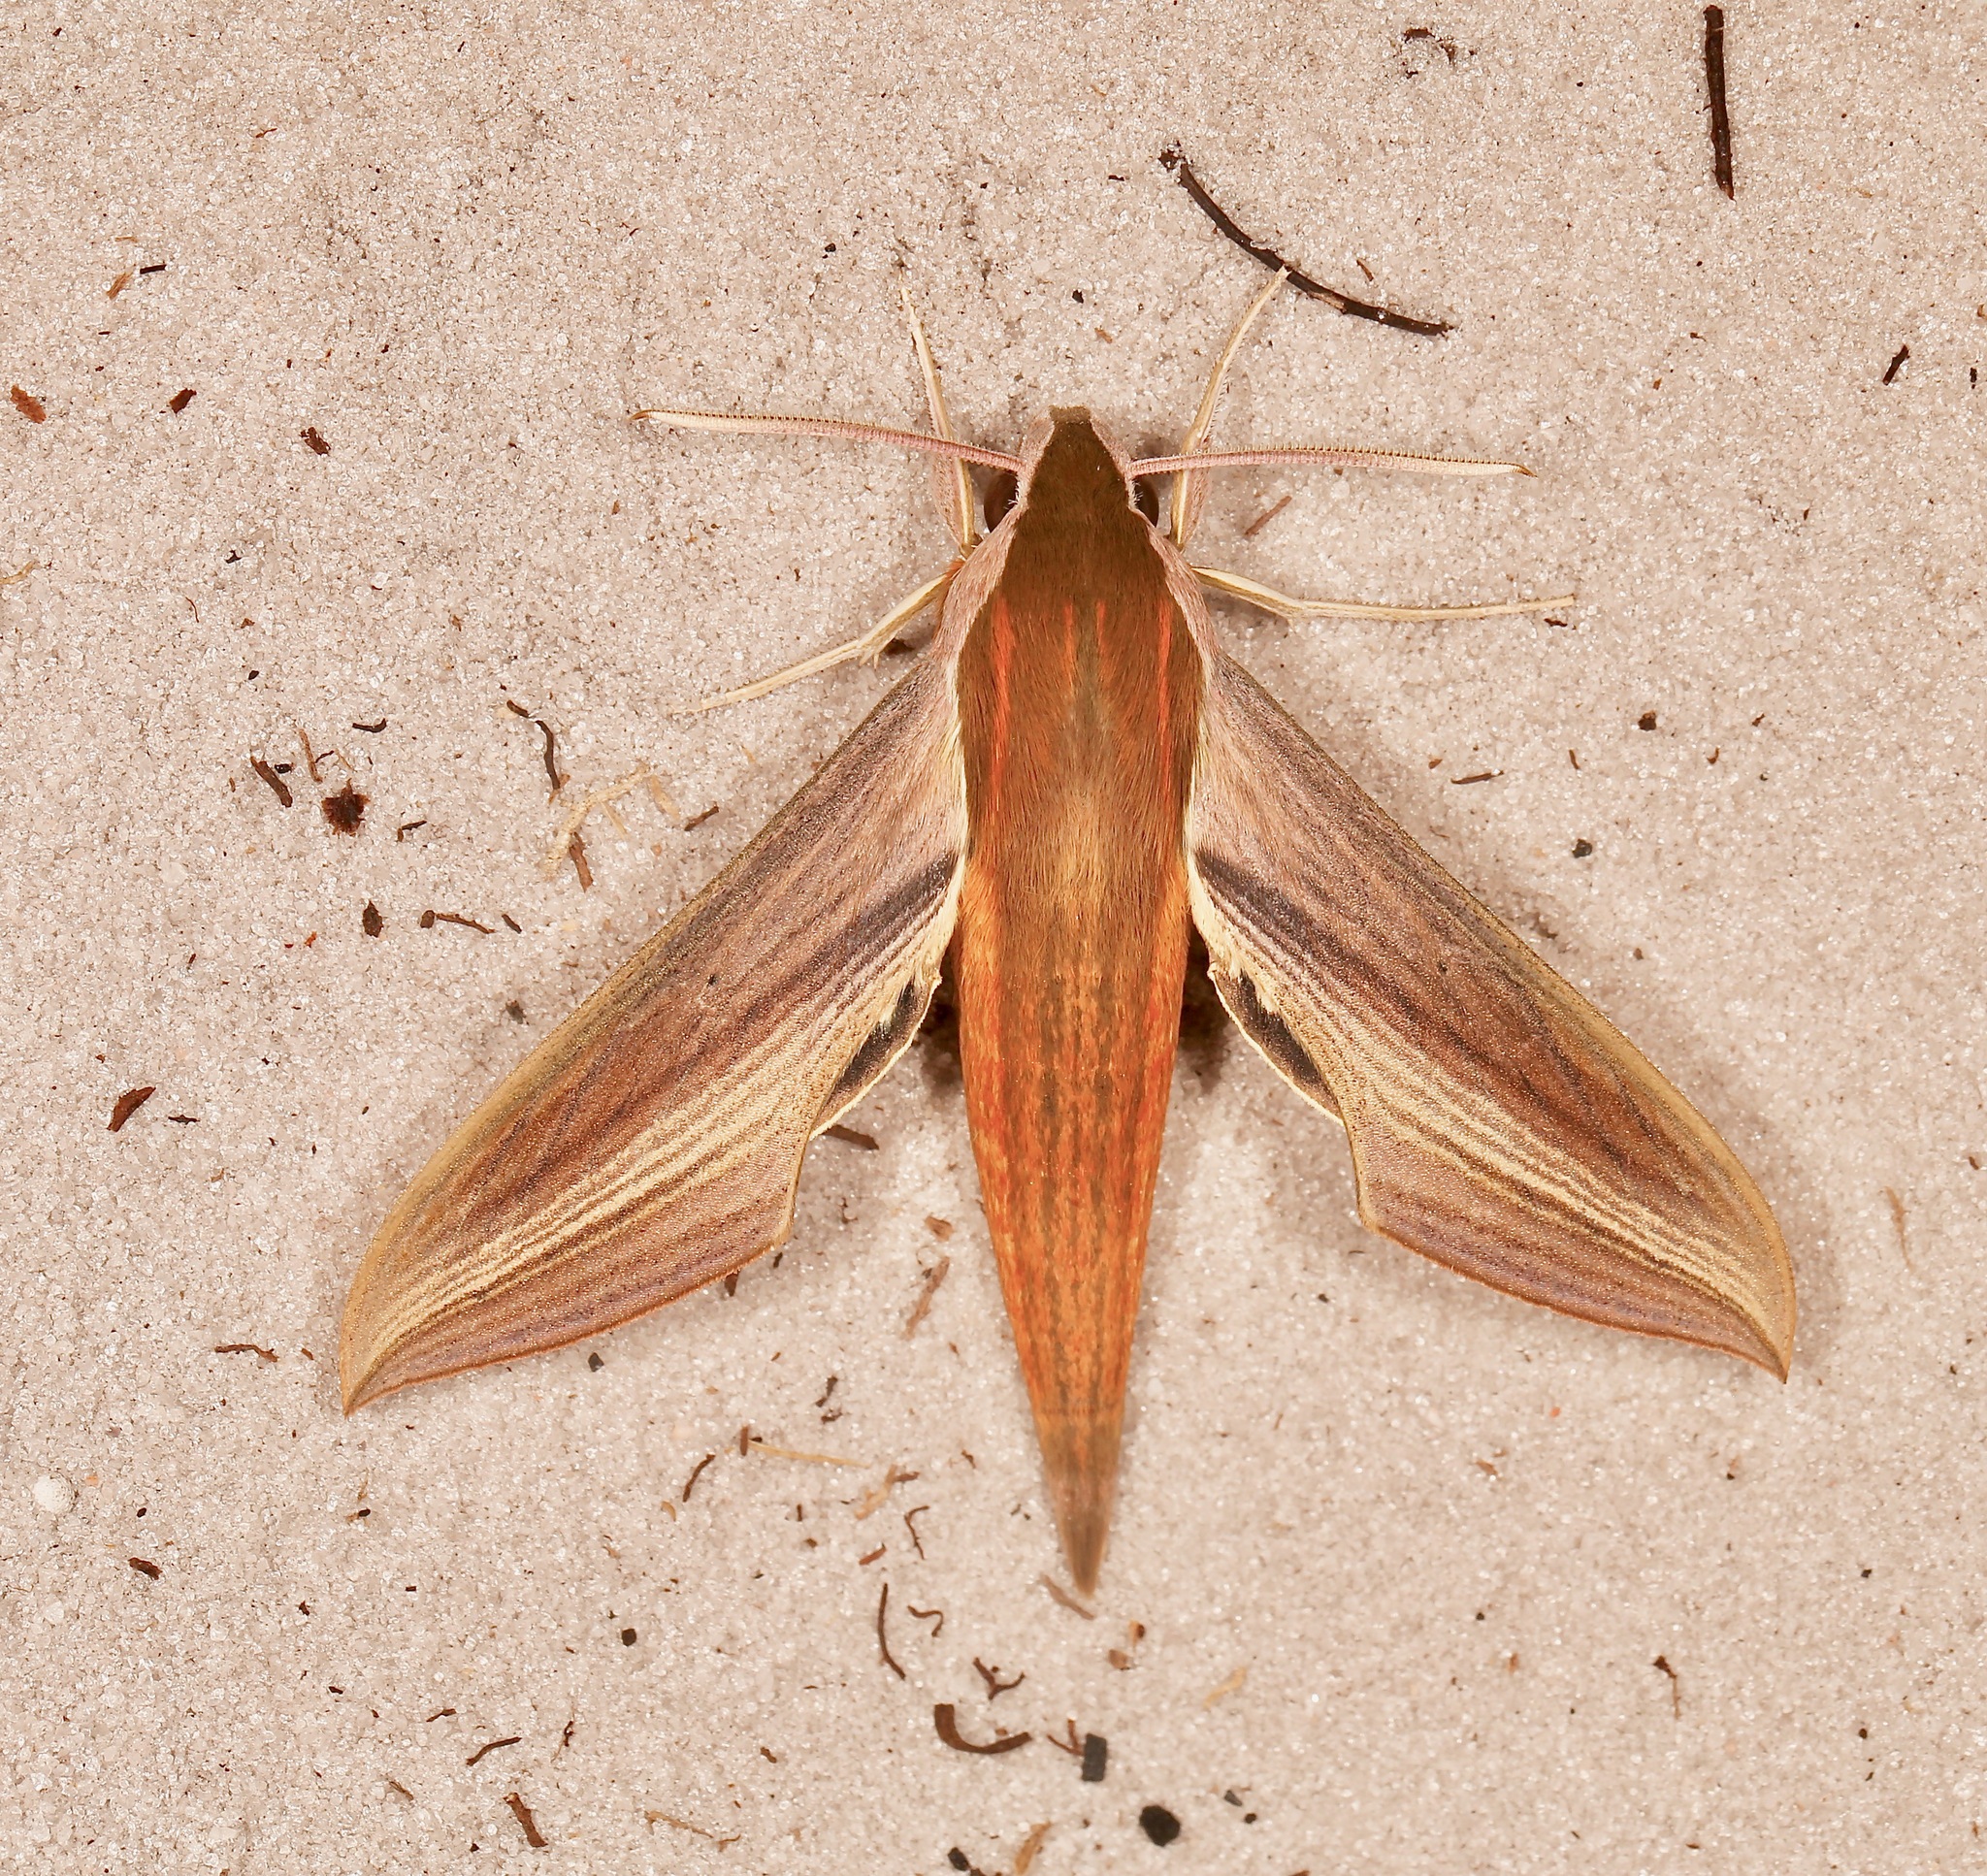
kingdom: Animalia
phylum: Arthropoda
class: Insecta
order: Lepidoptera
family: Sphingidae
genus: Xylophanes
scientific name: Xylophanes tersa
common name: Tersa sphinx
